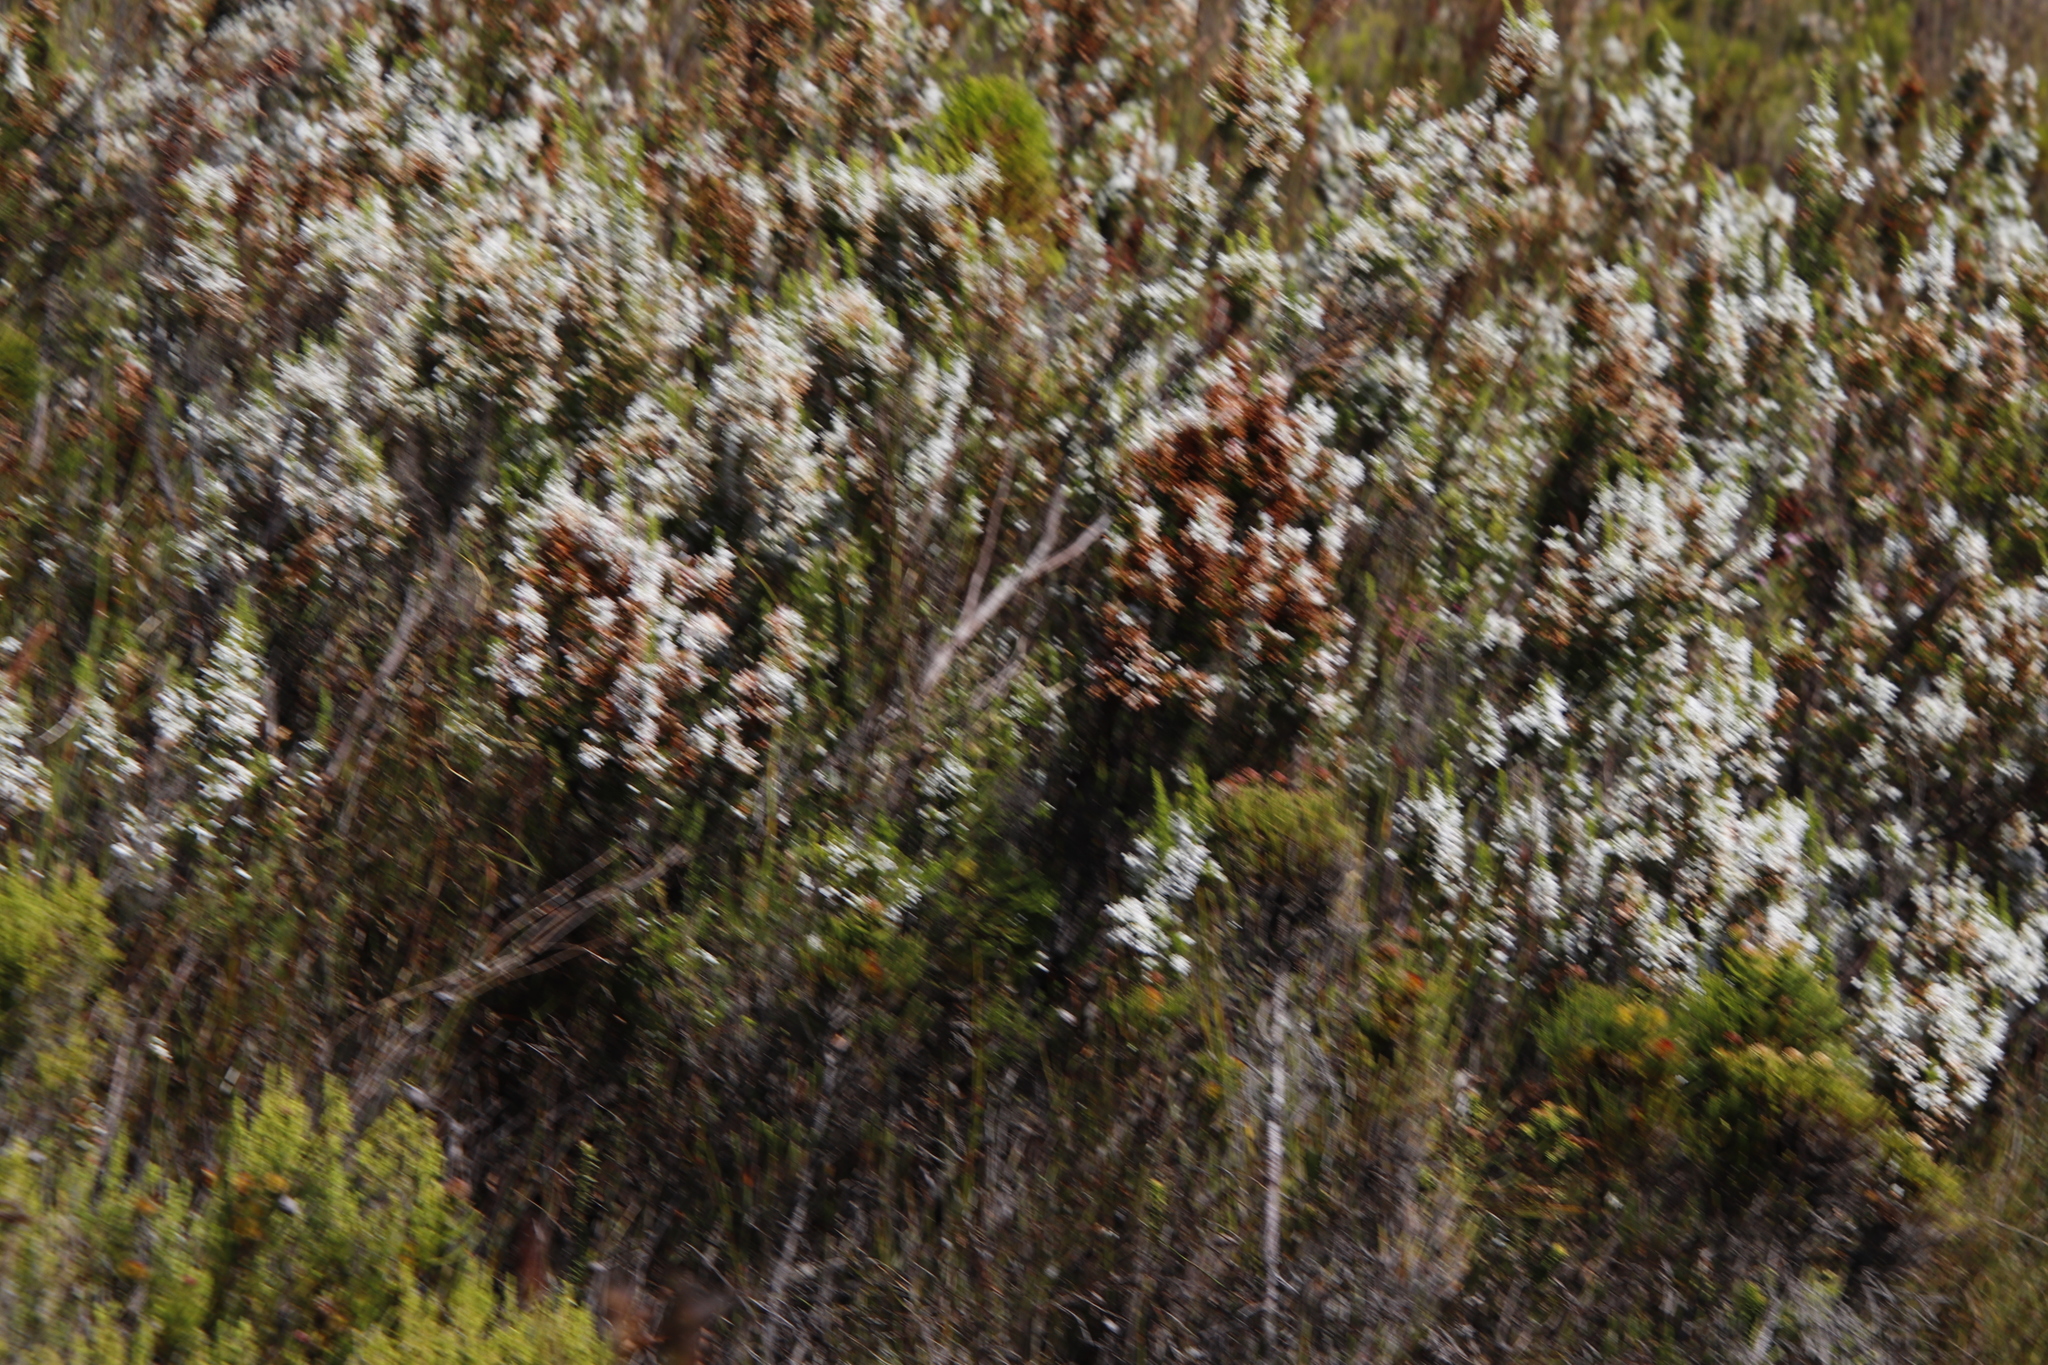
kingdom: Plantae
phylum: Tracheophyta
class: Magnoliopsida
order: Ericales
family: Ericaceae
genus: Erica
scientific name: Erica sitiens
